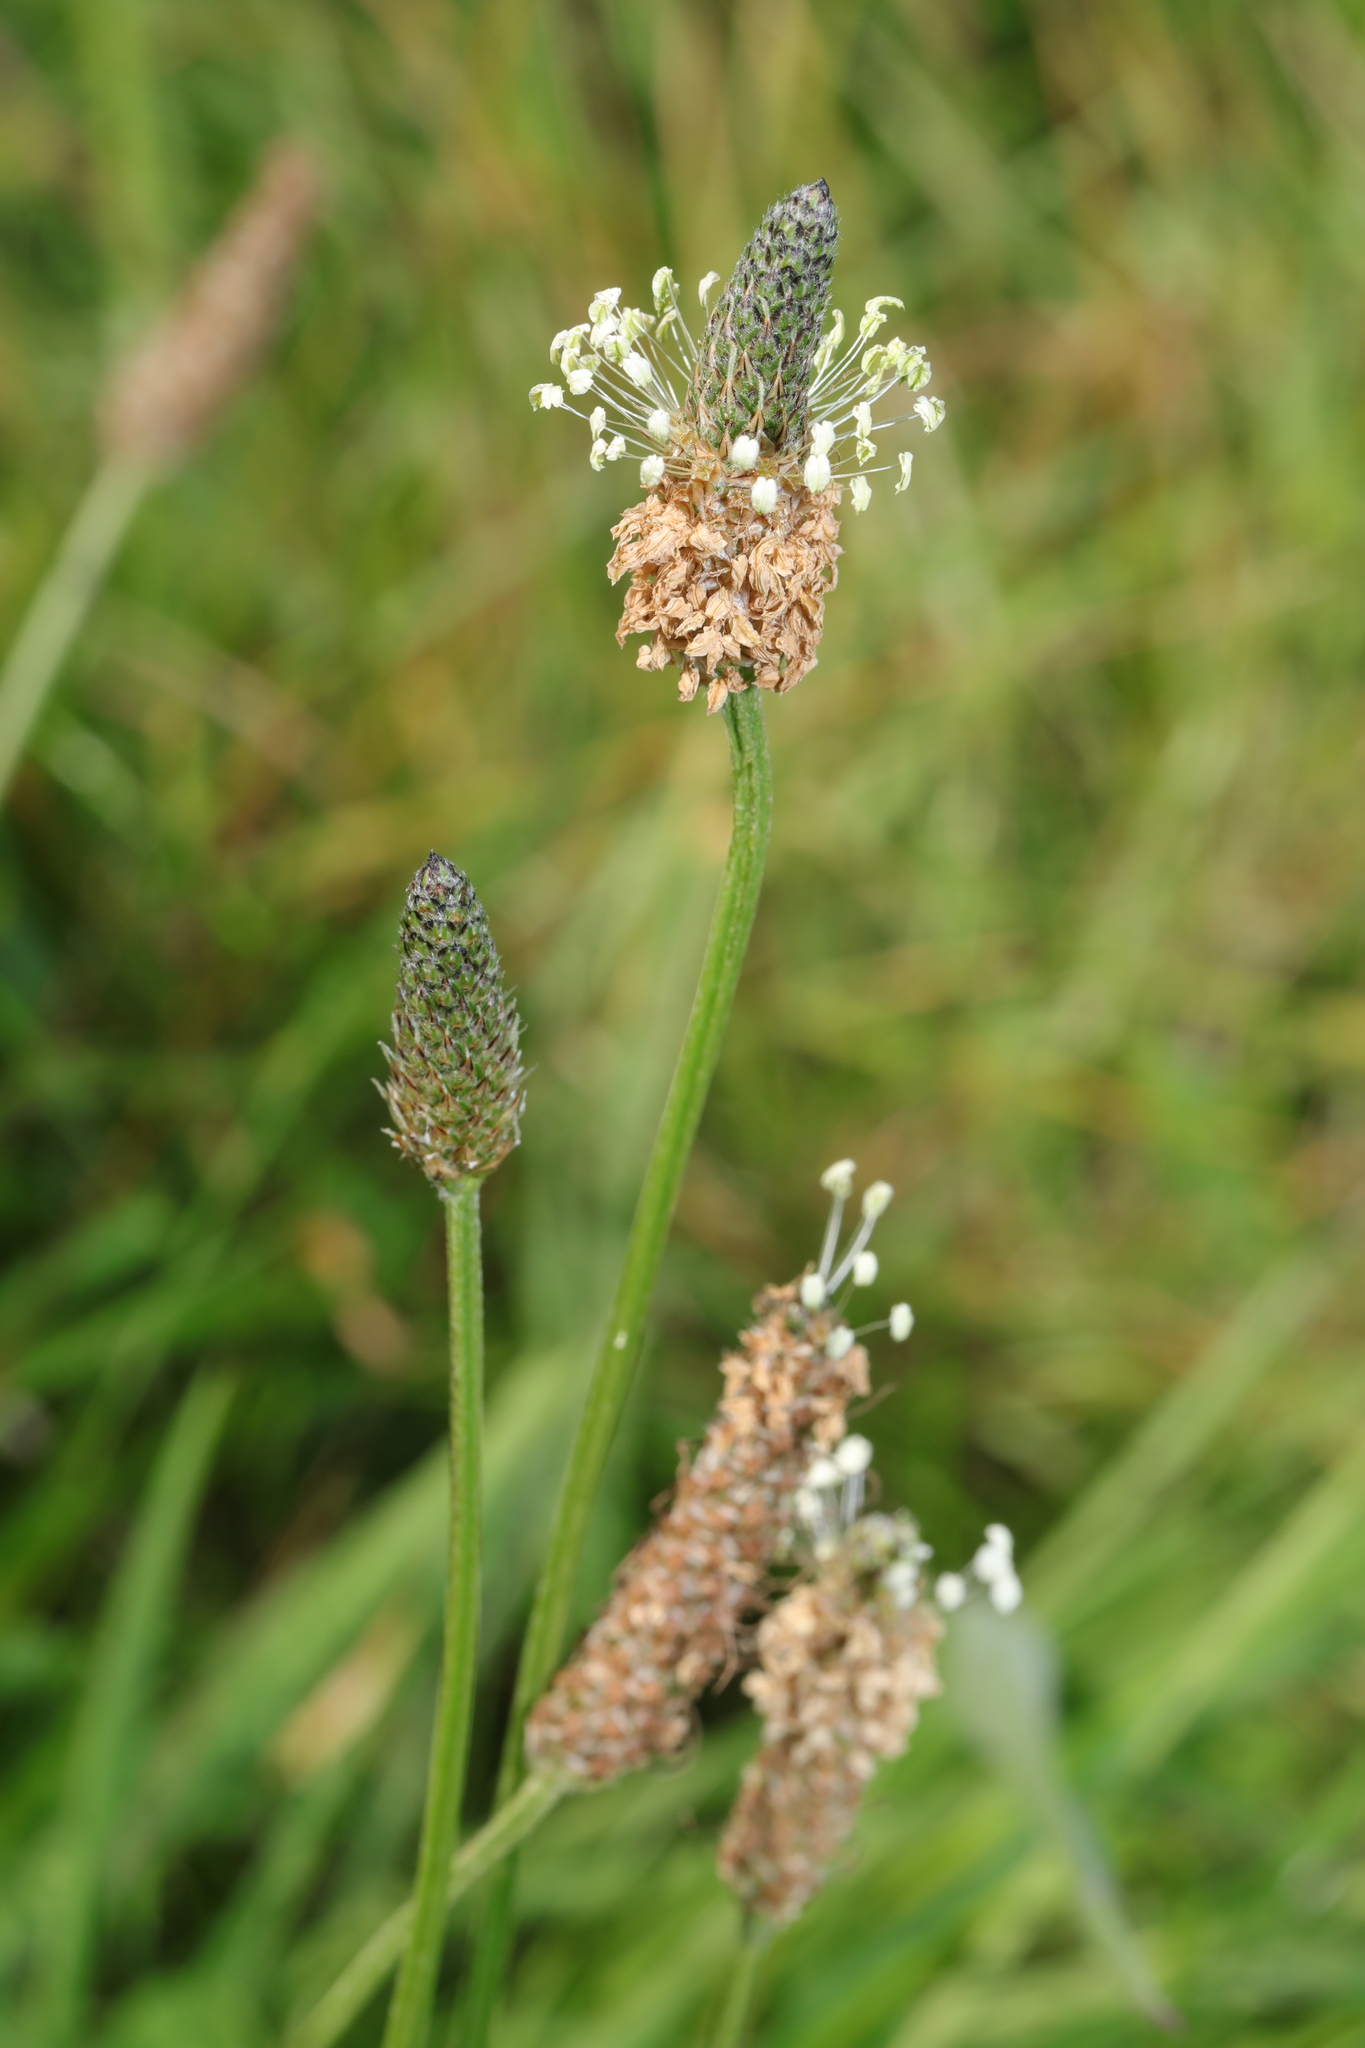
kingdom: Plantae
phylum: Tracheophyta
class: Magnoliopsida
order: Lamiales
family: Plantaginaceae
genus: Plantago
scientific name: Plantago lanceolata
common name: Ribwort plantain
